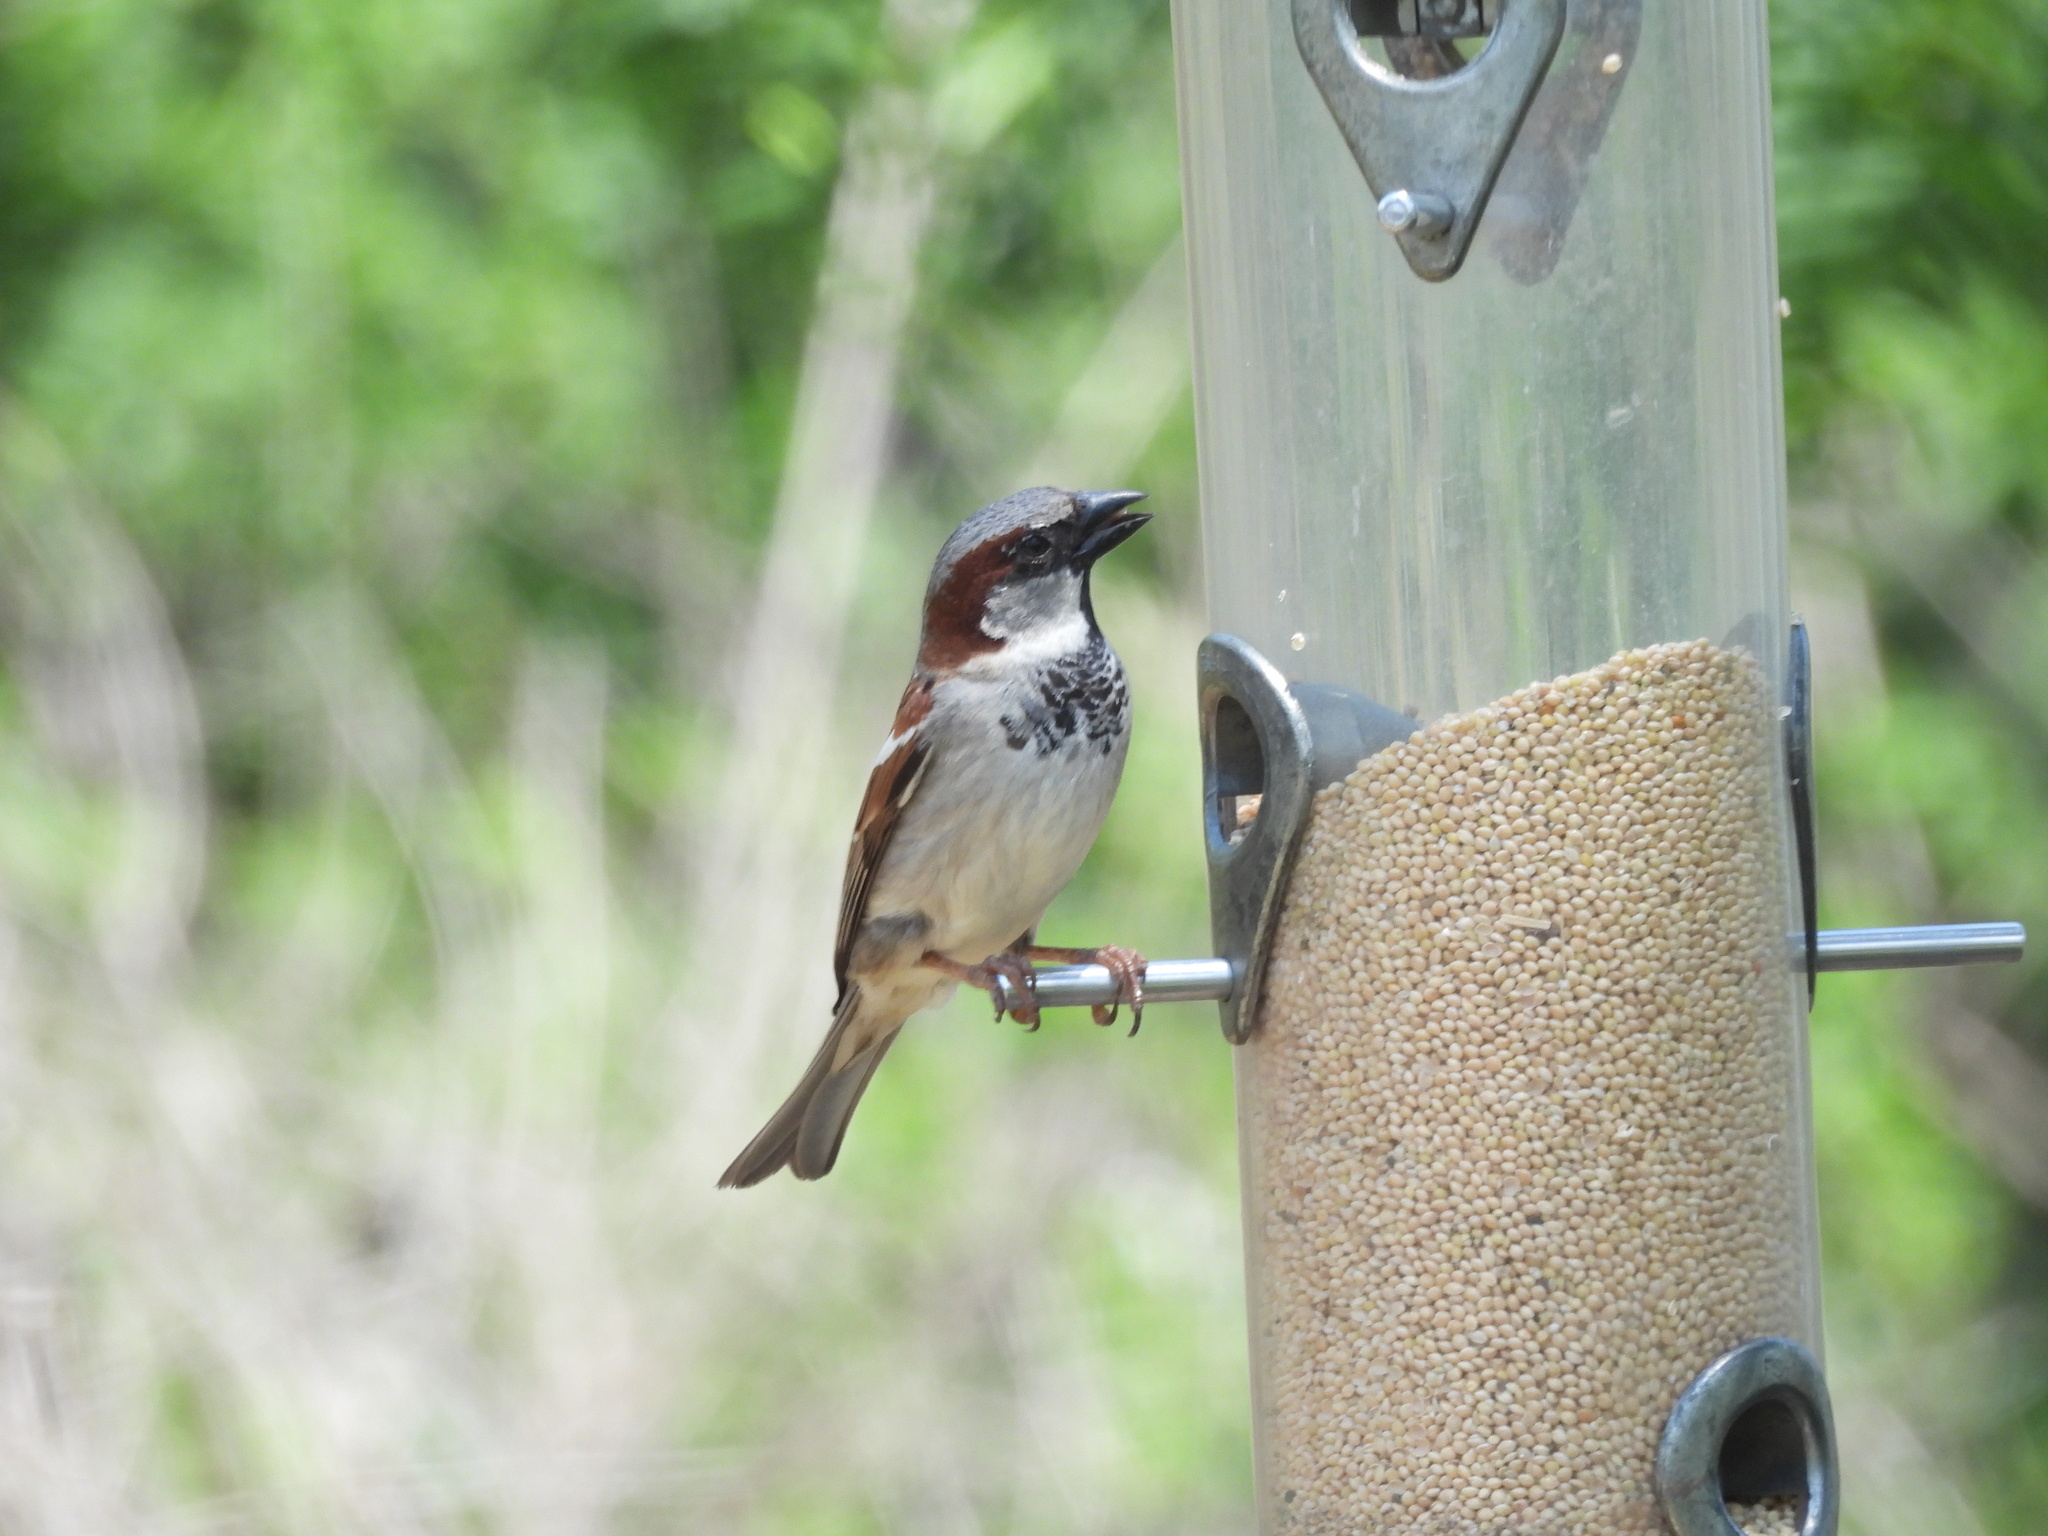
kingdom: Animalia
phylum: Chordata
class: Aves
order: Passeriformes
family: Passeridae
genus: Passer
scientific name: Passer domesticus
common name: House sparrow
